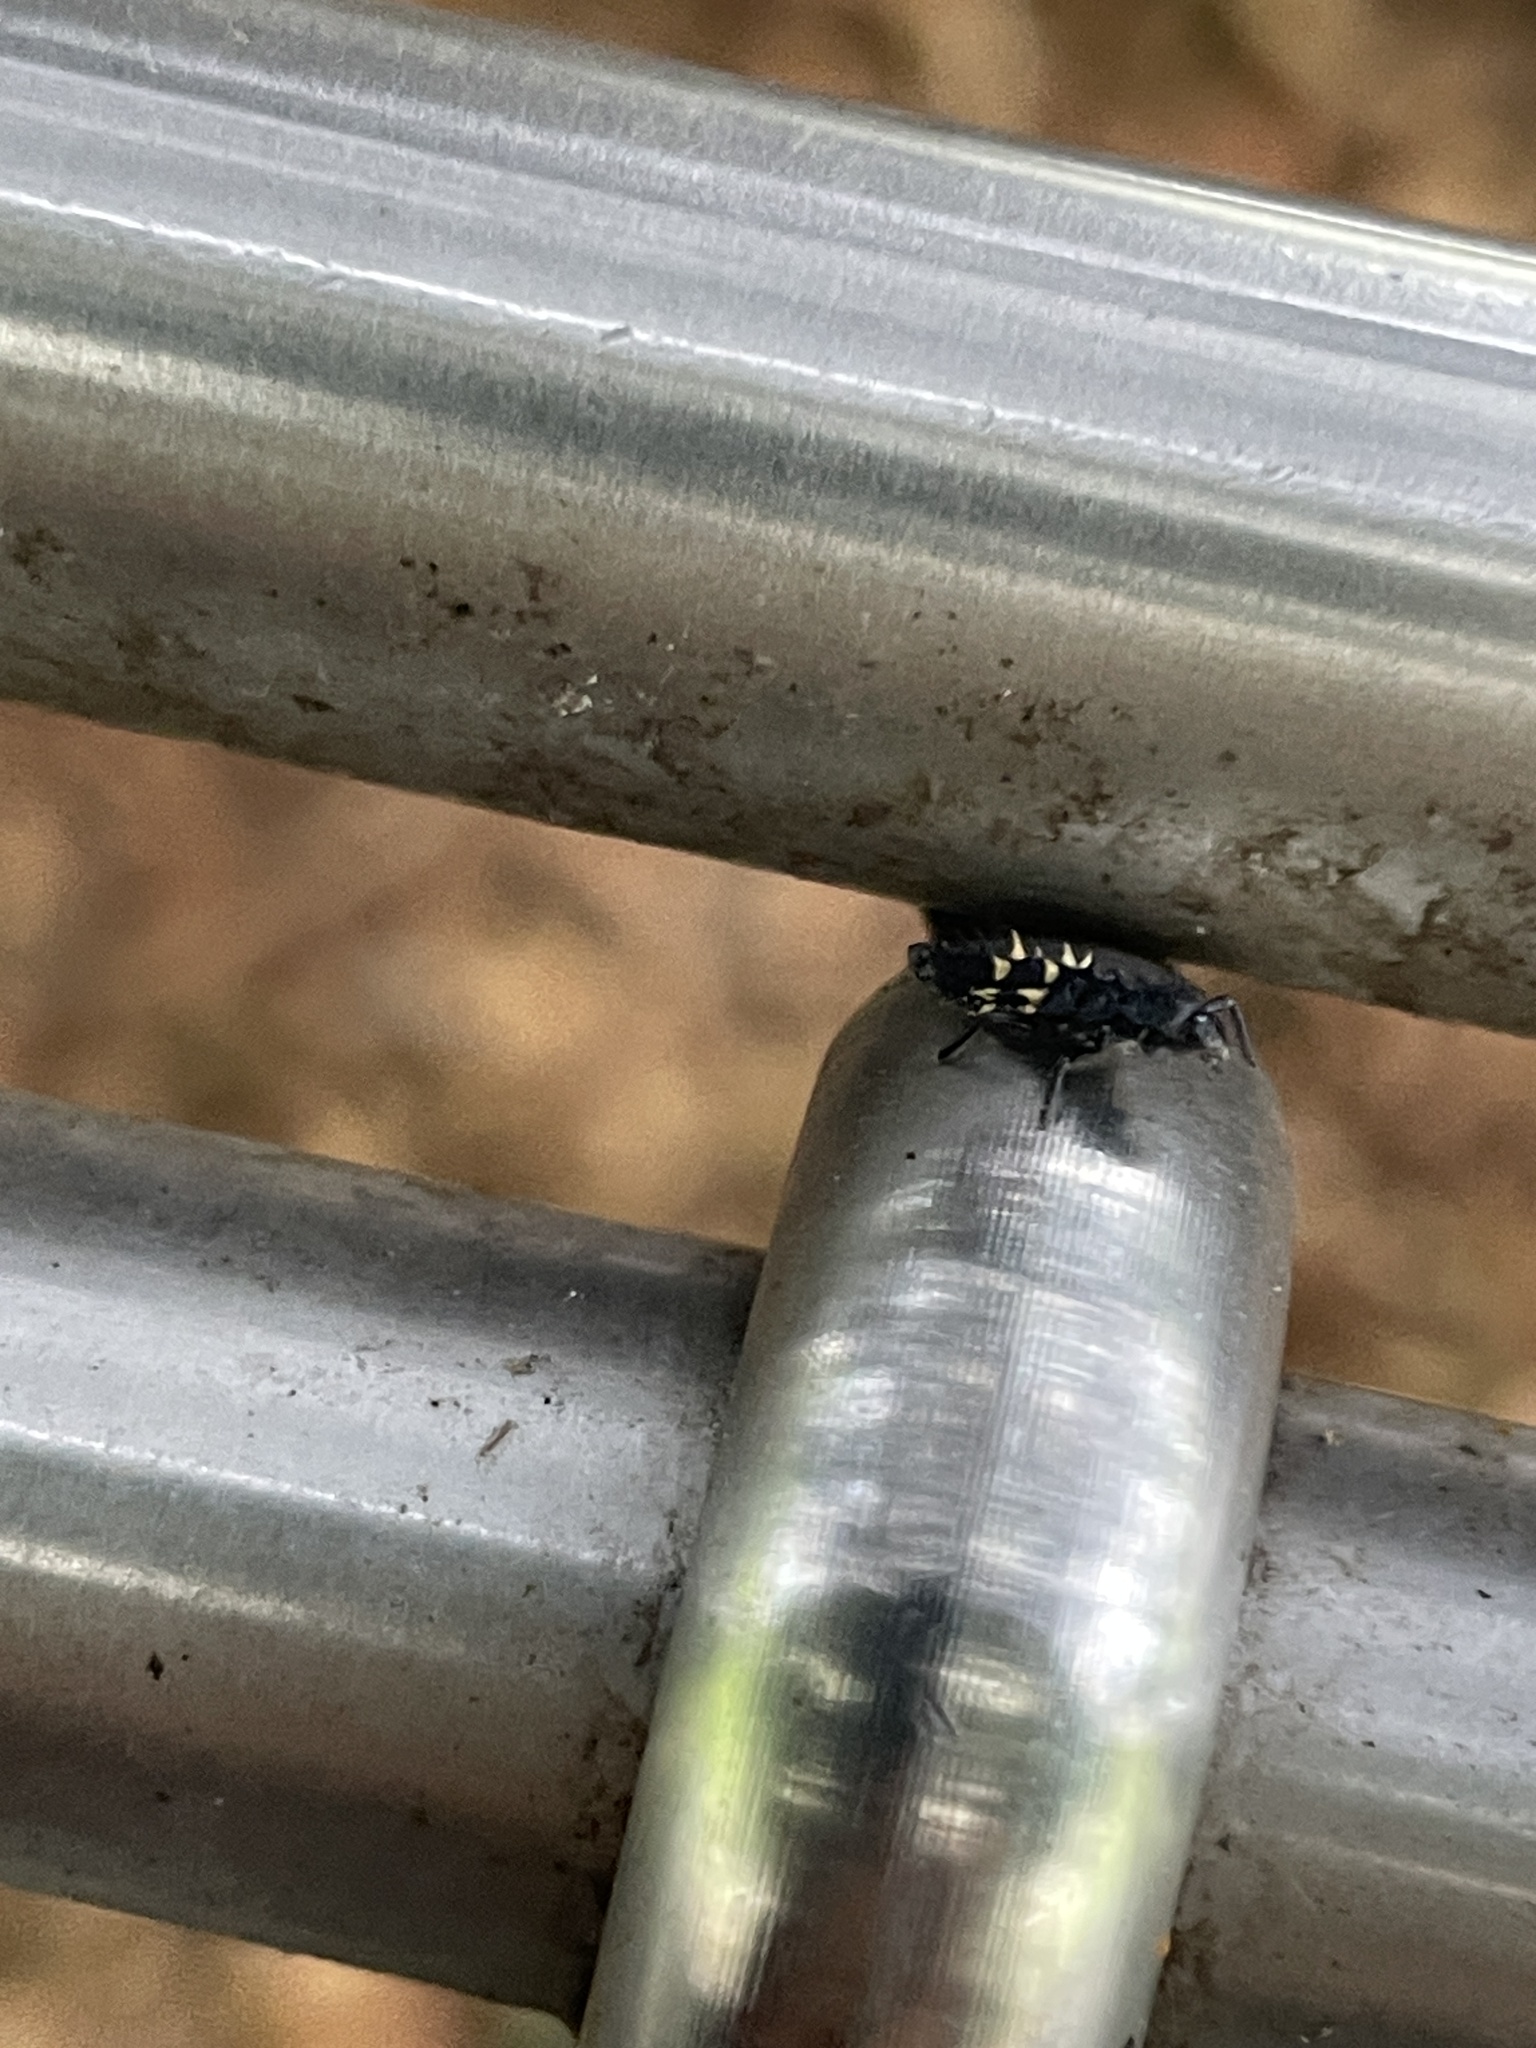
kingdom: Animalia
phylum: Arthropoda
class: Insecta
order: Coleoptera
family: Coccinellidae
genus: Harmonia
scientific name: Harmonia conformis
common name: Common spotted ladybird beetle
